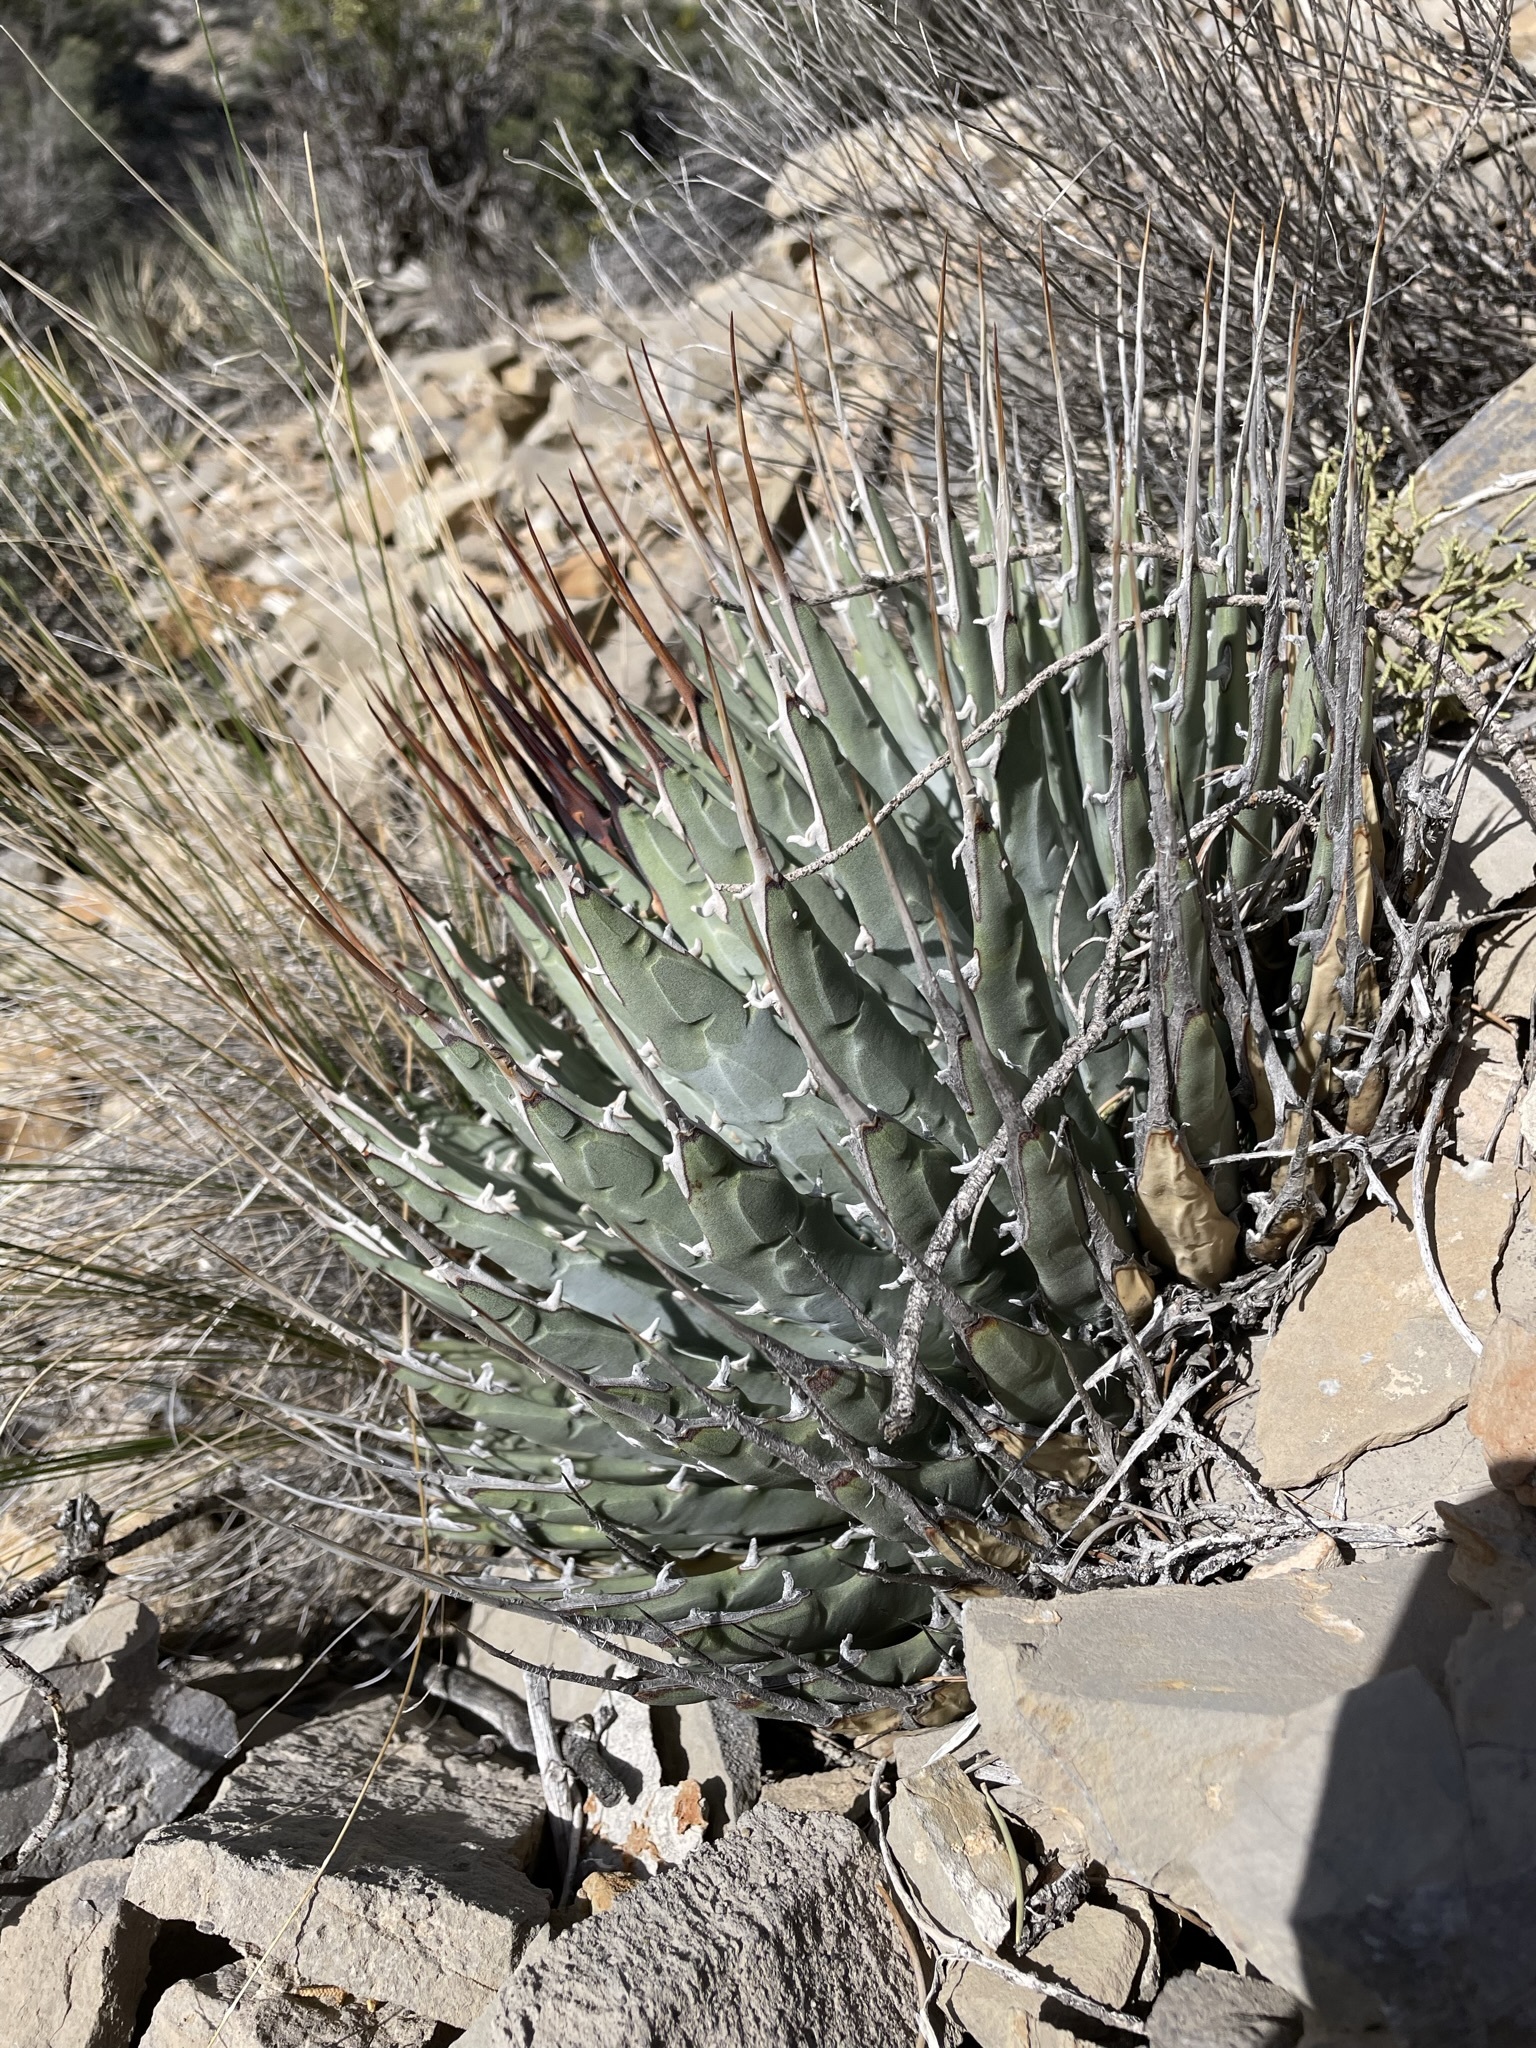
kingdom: Plantae
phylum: Tracheophyta
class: Liliopsida
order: Asparagales
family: Asparagaceae
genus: Agave
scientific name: Agave utahensis
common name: Utah agave
